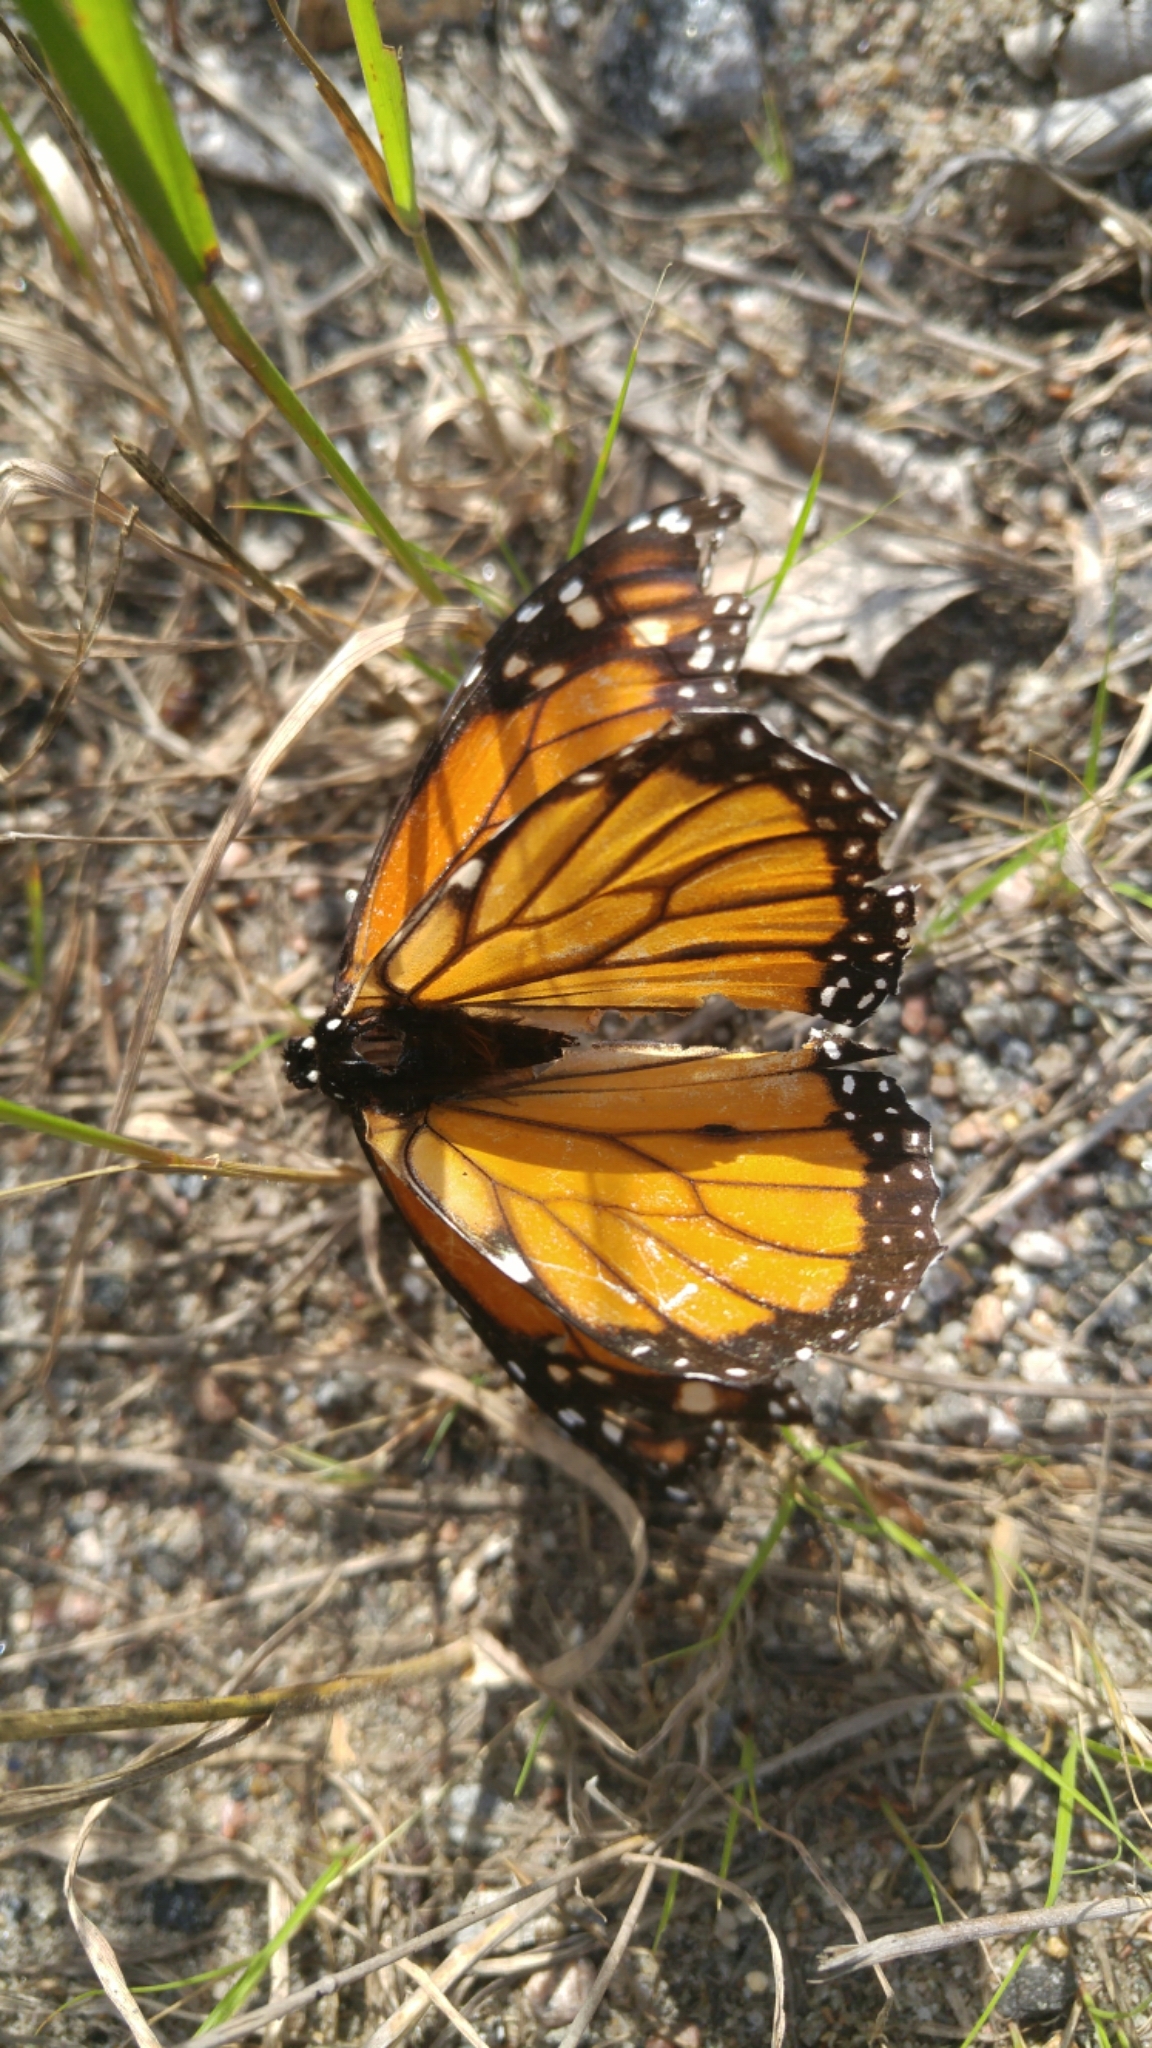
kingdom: Animalia
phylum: Arthropoda
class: Insecta
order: Lepidoptera
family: Nymphalidae
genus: Danaus
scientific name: Danaus plexippus
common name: Monarch
